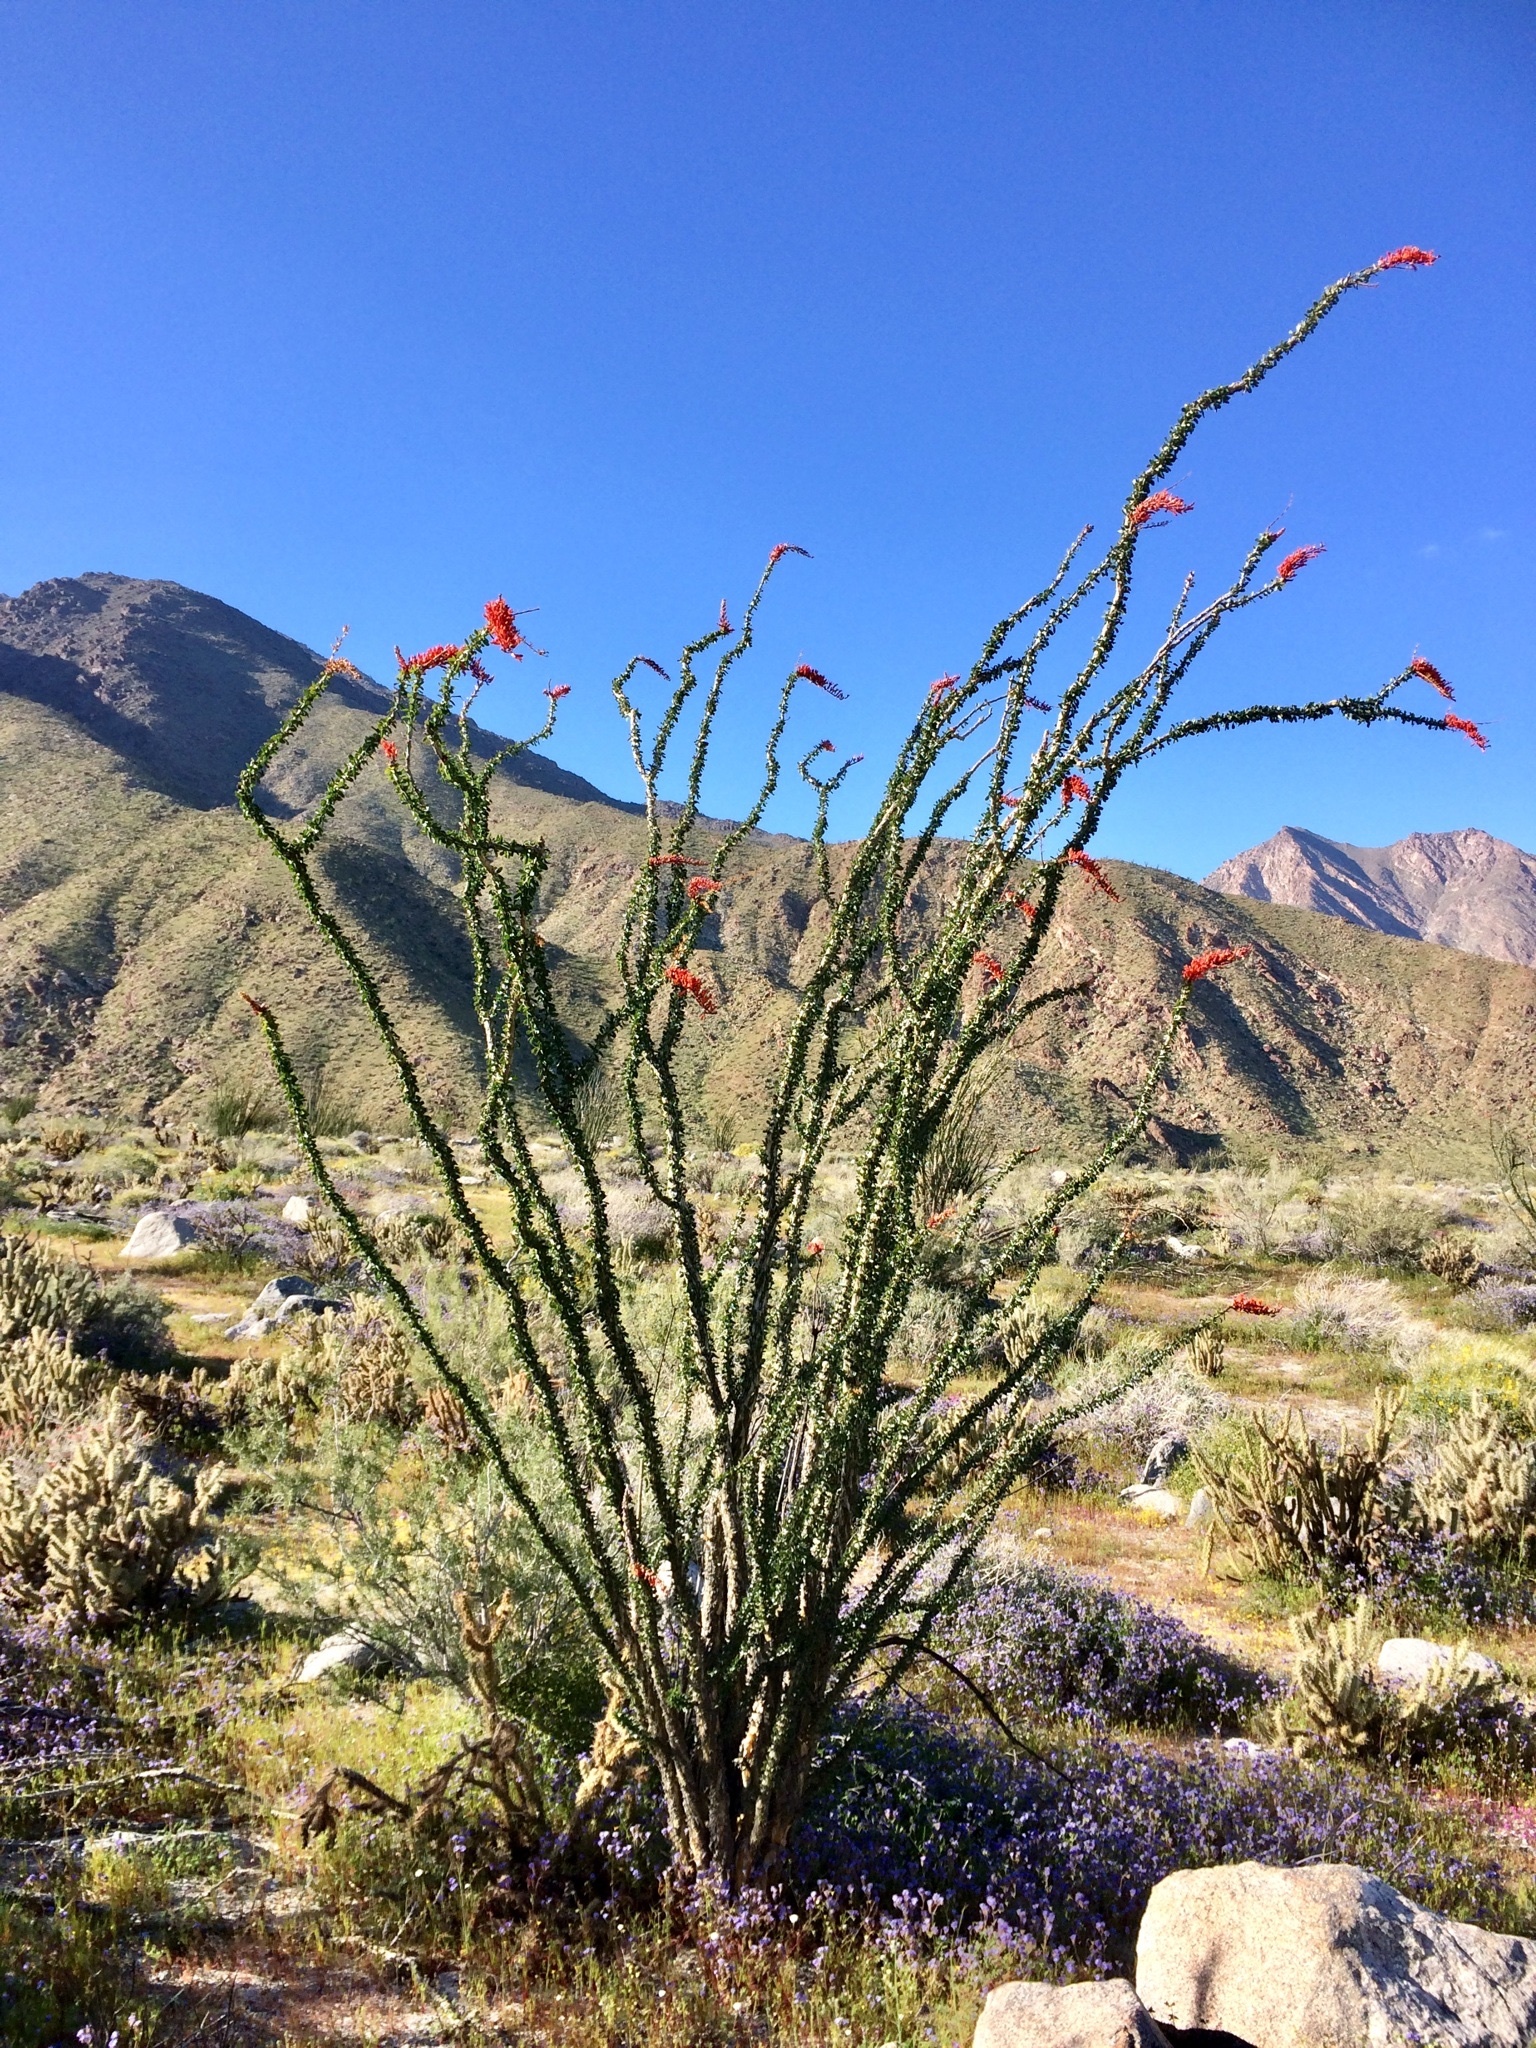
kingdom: Plantae
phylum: Tracheophyta
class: Magnoliopsida
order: Ericales
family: Fouquieriaceae
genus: Fouquieria
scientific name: Fouquieria splendens
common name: Vine-cactus
